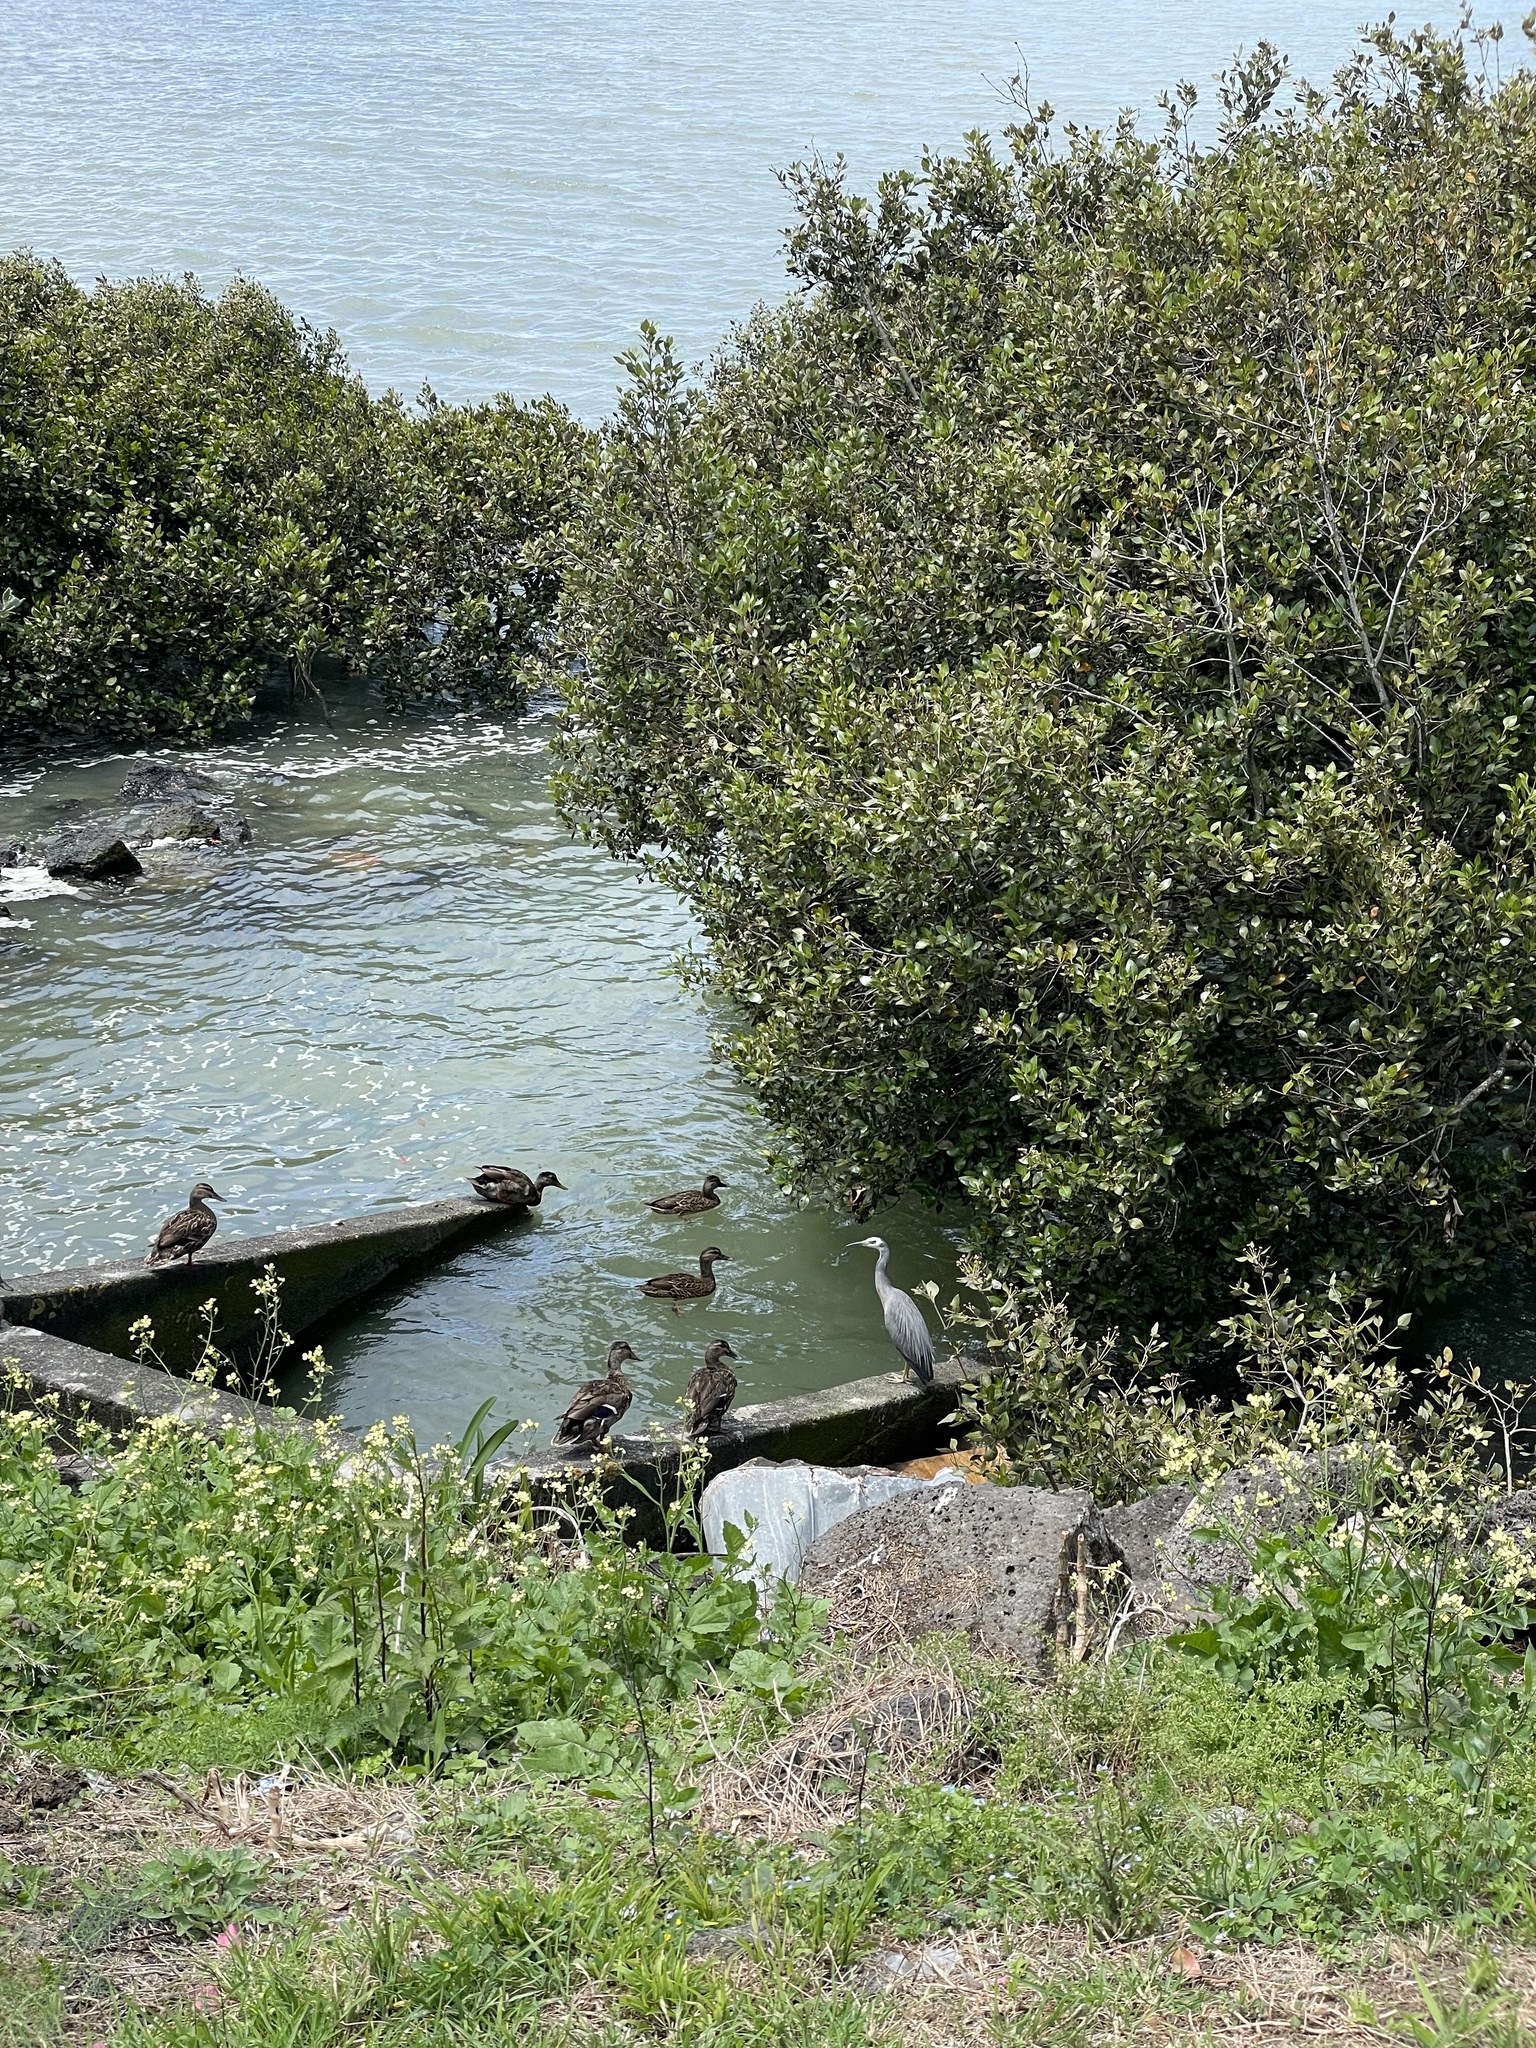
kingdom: Animalia
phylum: Chordata
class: Aves
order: Pelecaniformes
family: Ardeidae
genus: Egretta
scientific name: Egretta novaehollandiae
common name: White-faced heron
